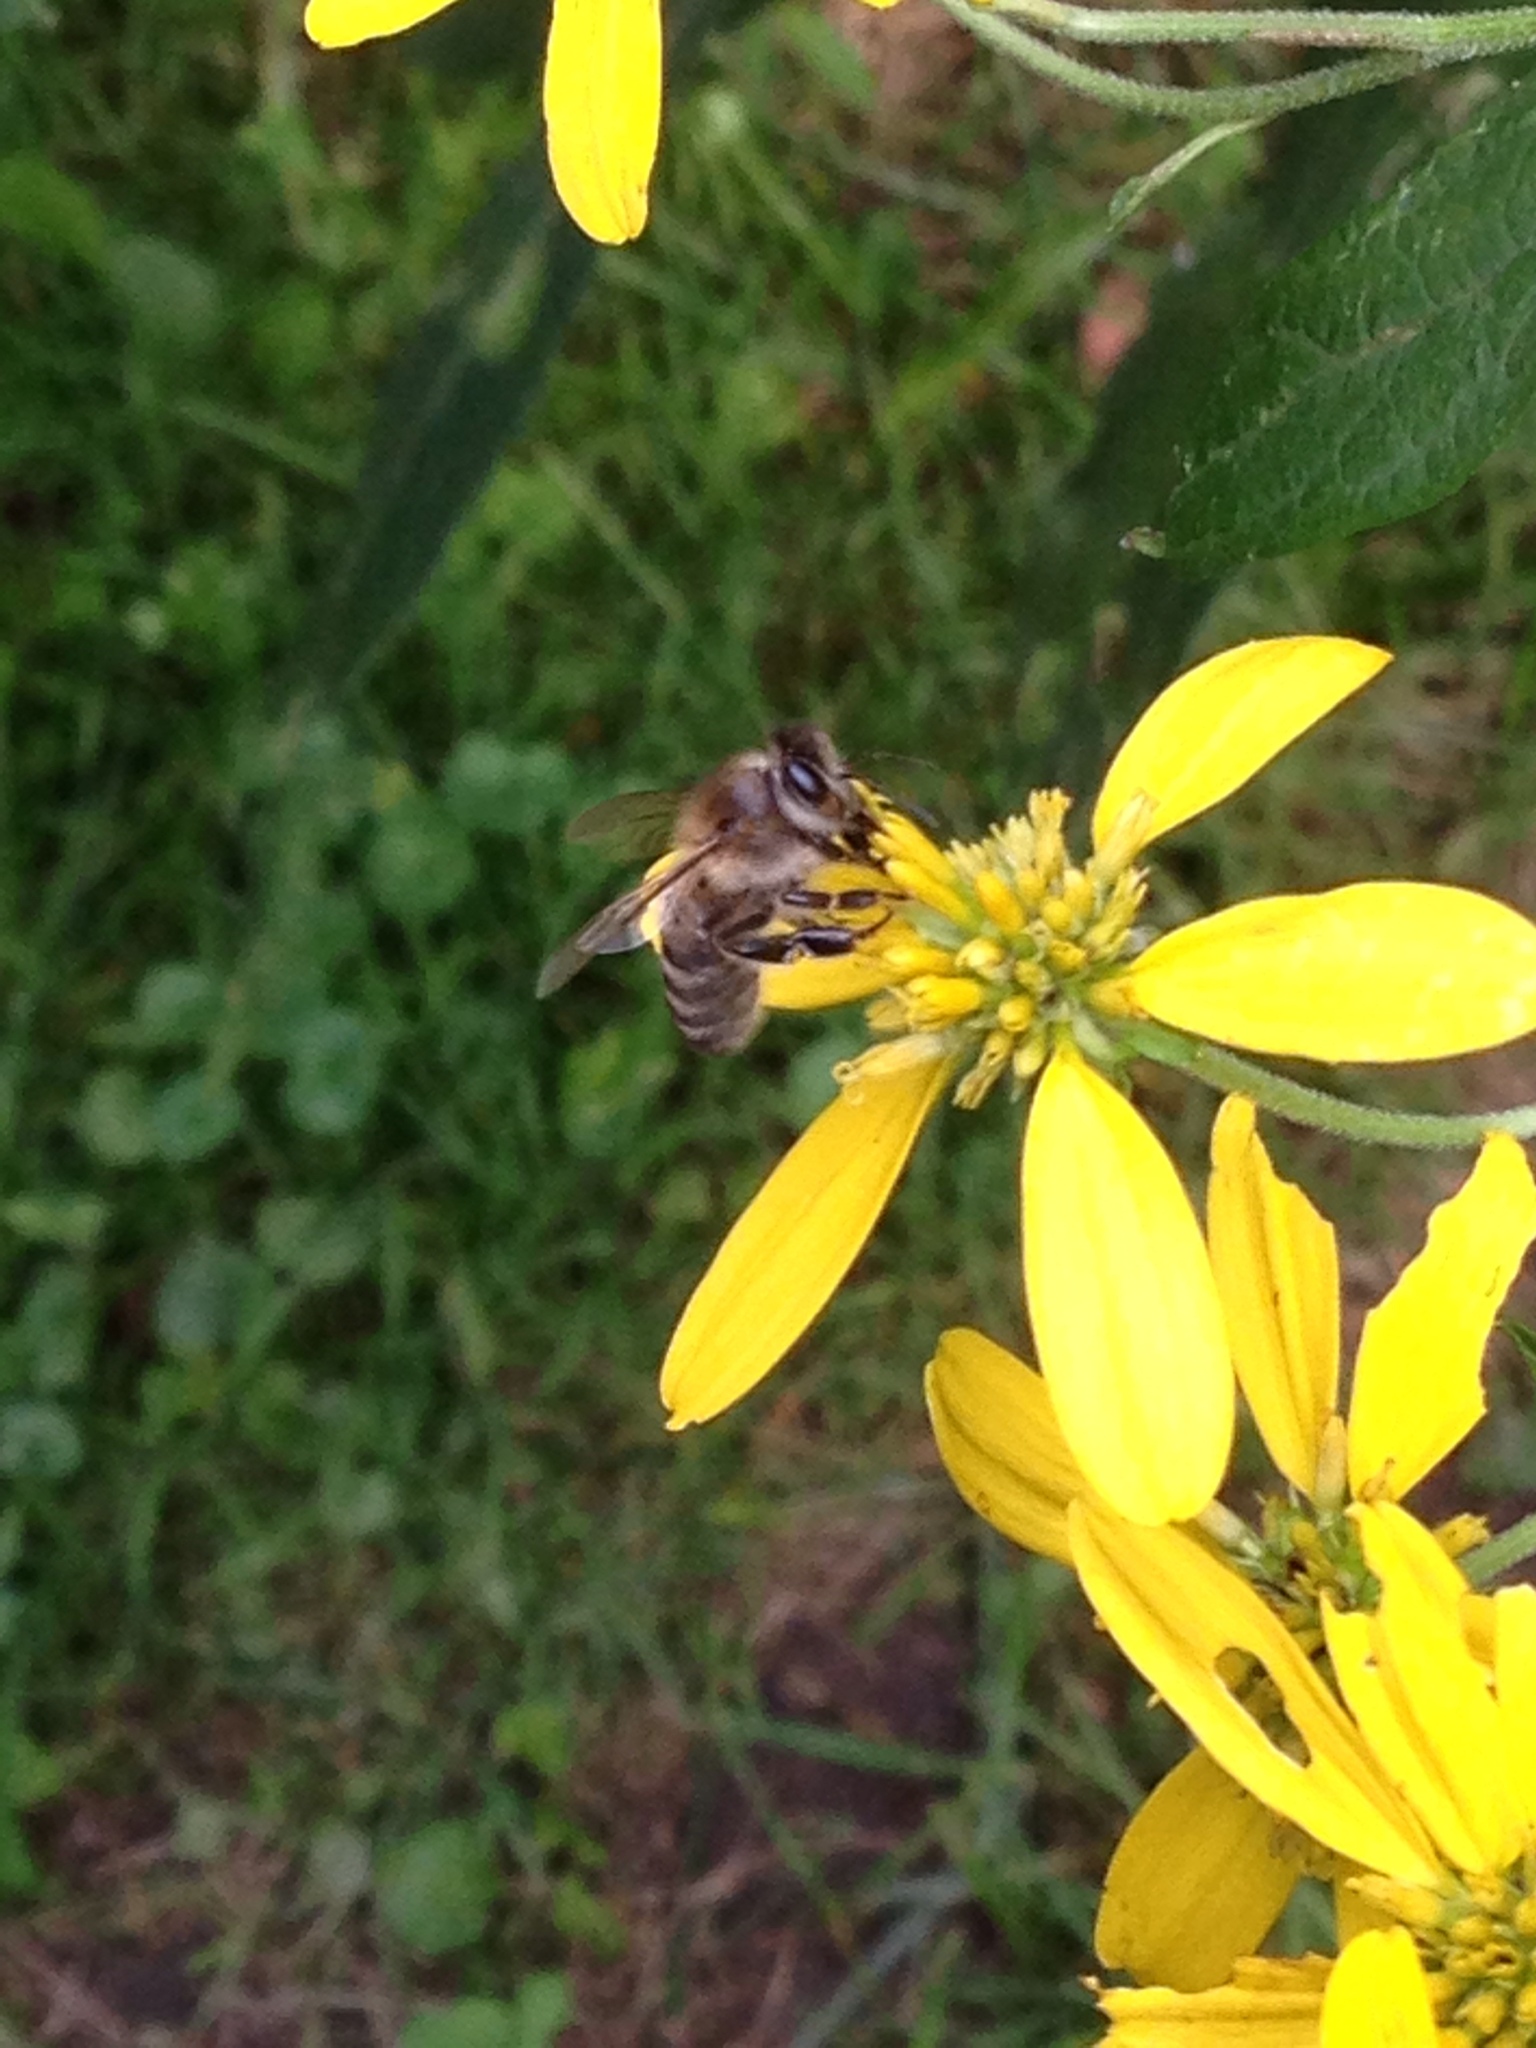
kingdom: Animalia
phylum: Arthropoda
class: Insecta
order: Hymenoptera
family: Apidae
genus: Apis
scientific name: Apis mellifera
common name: Honey bee
